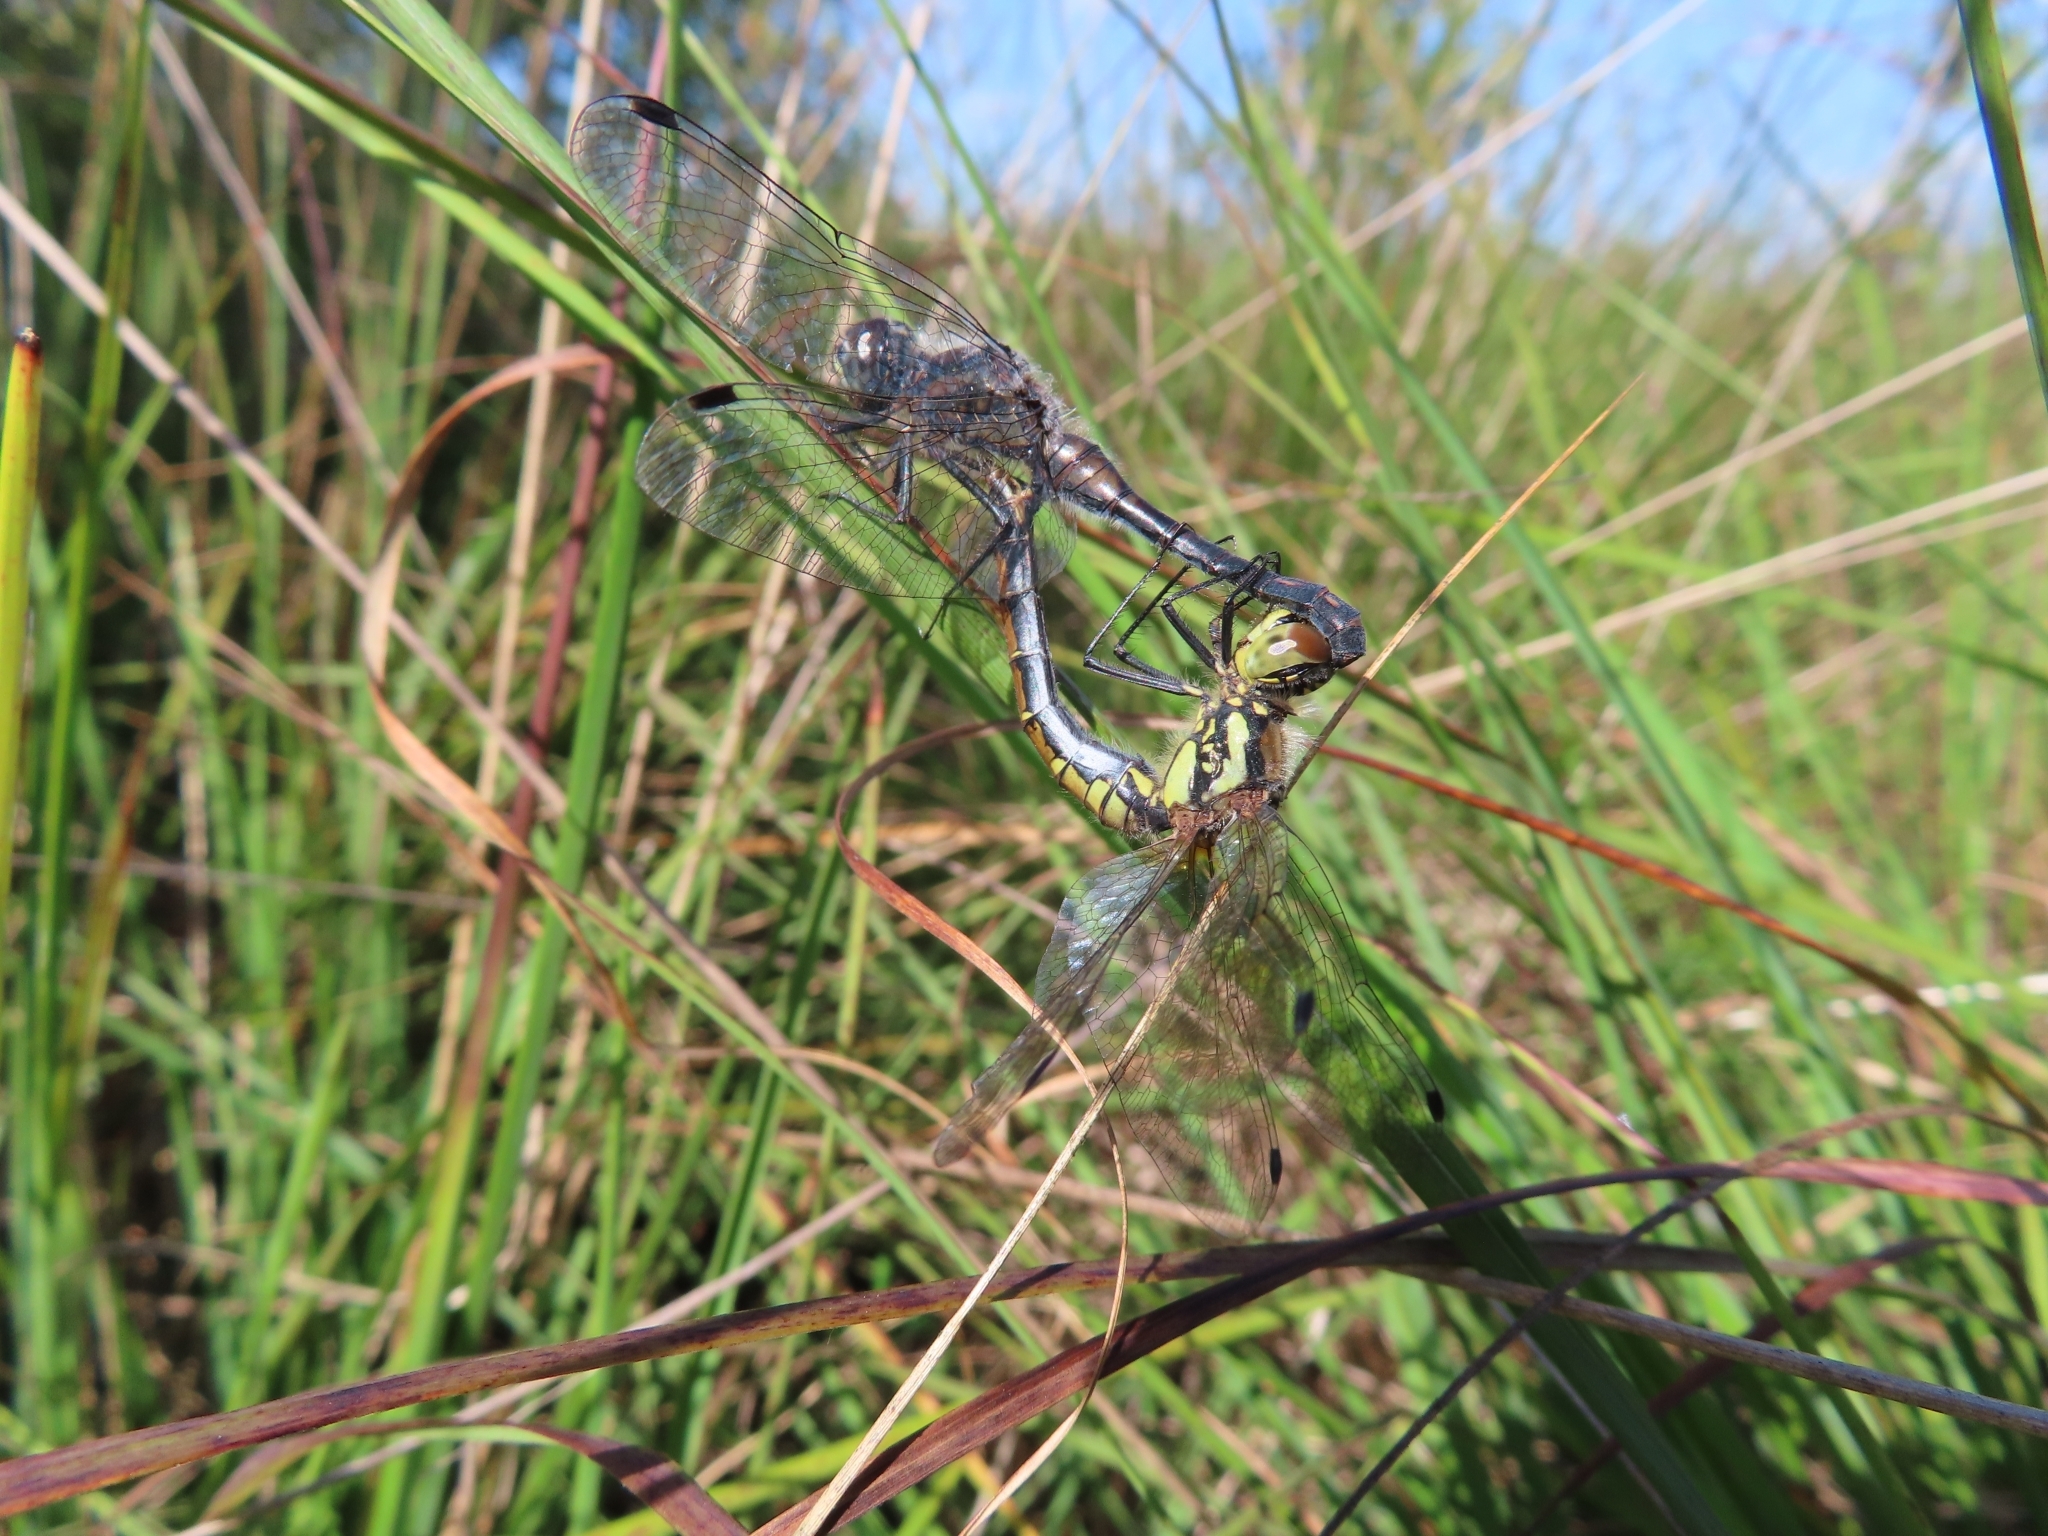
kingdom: Animalia
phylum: Arthropoda
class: Insecta
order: Odonata
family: Libellulidae
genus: Sympetrum
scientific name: Sympetrum danae
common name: Black darter
